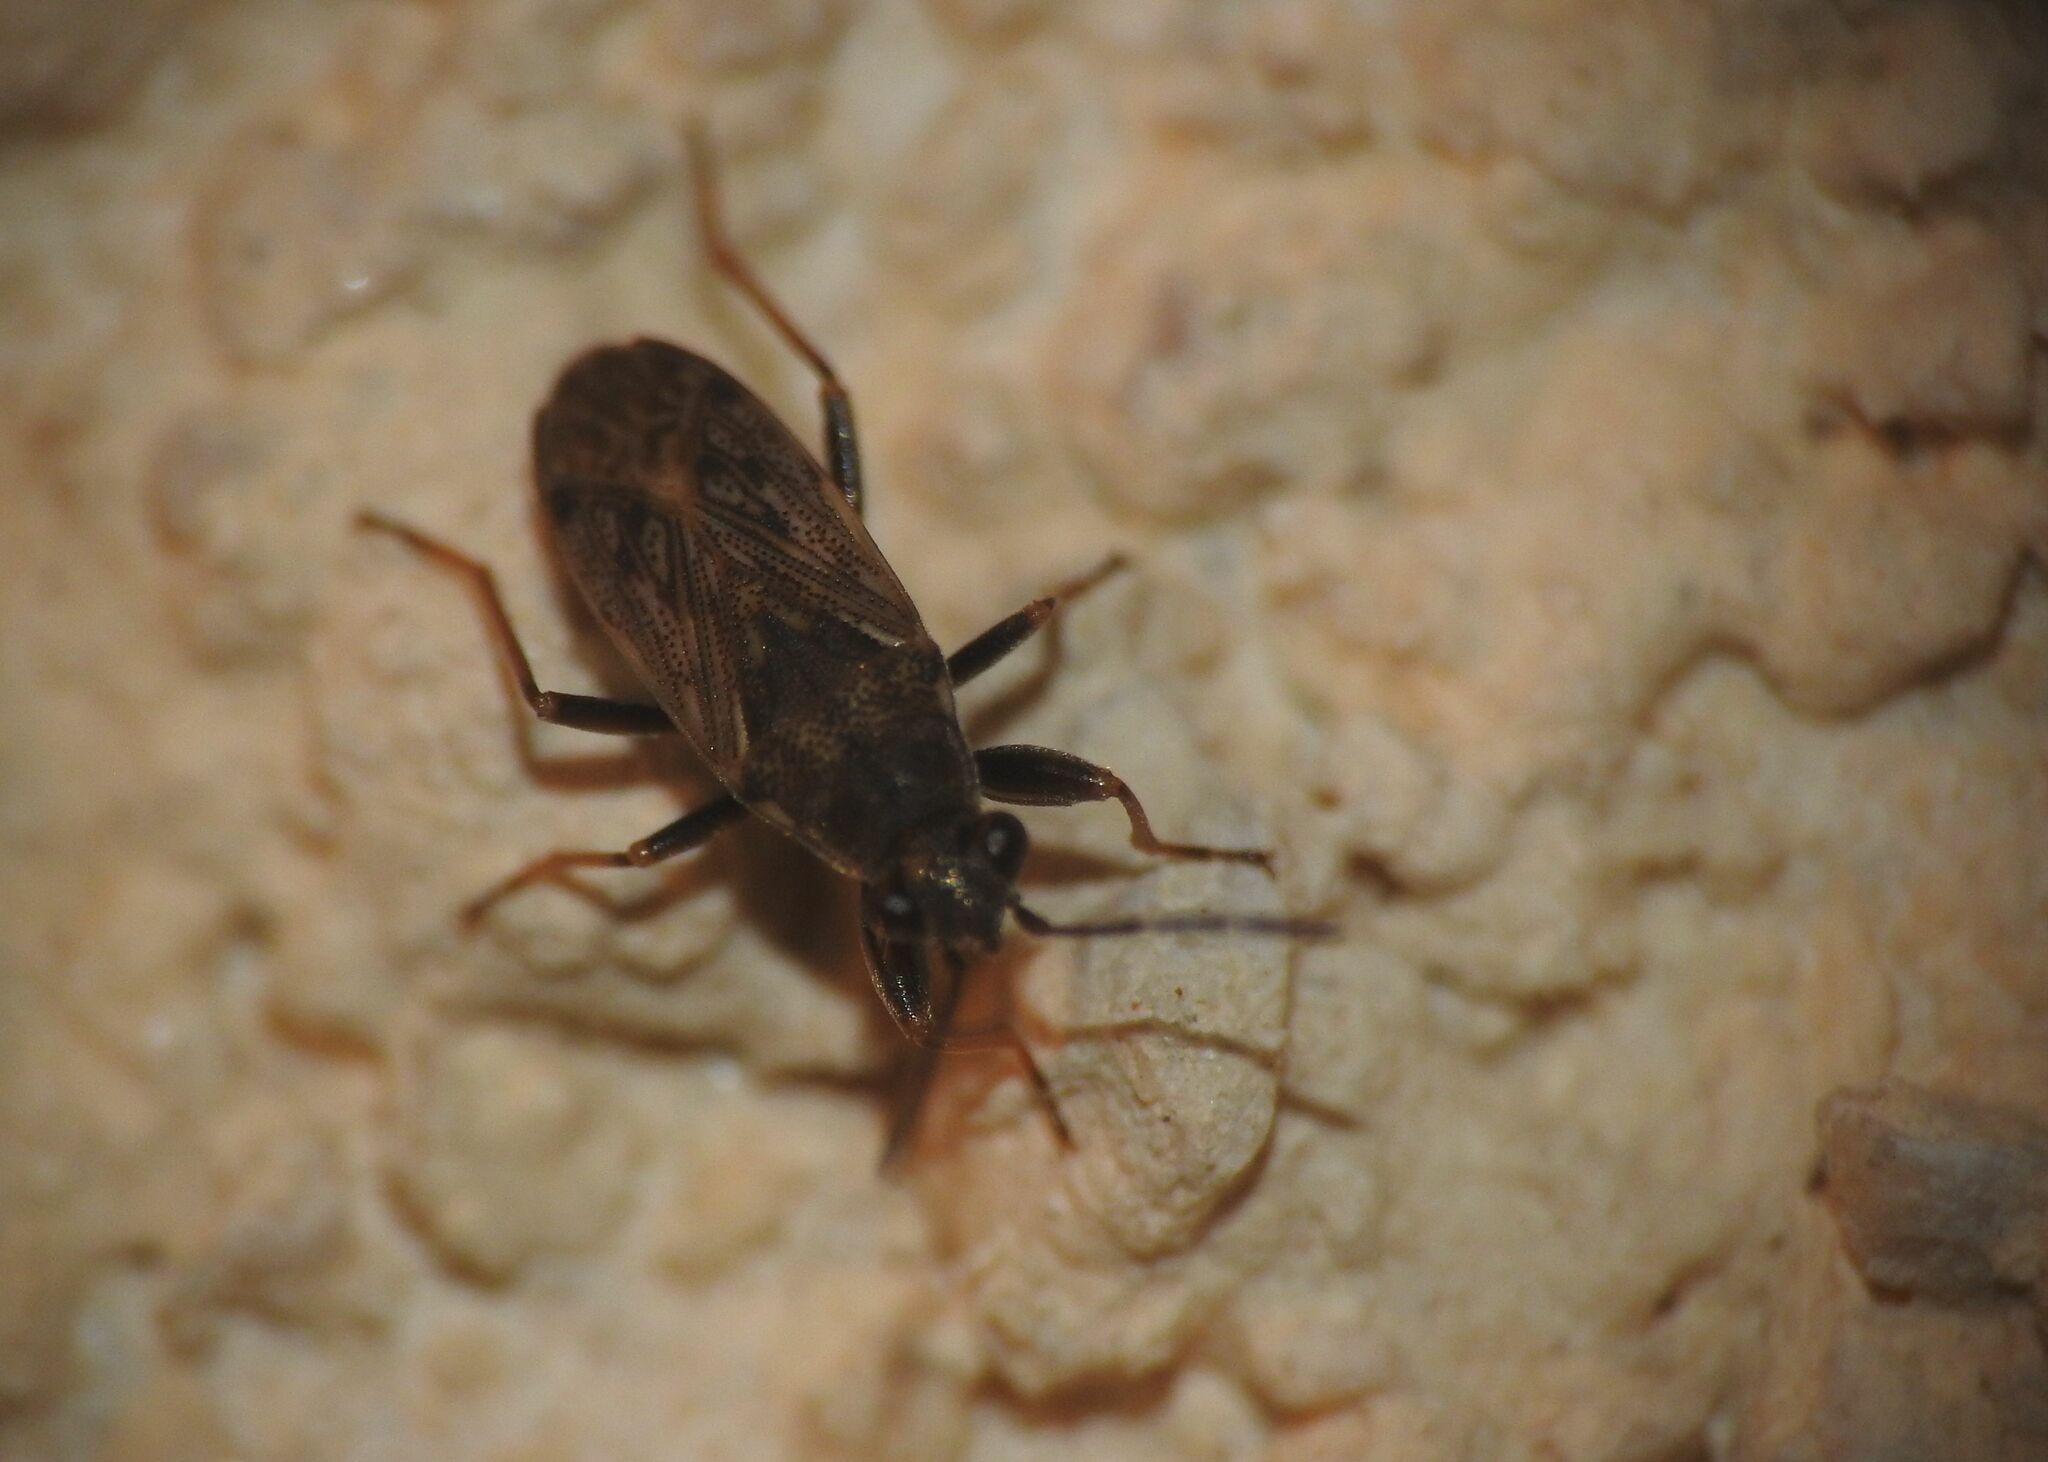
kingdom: Animalia
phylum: Arthropoda
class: Insecta
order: Hemiptera
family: Rhyparochromidae
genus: Peritrechus
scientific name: Peritrechus gracilicornis
